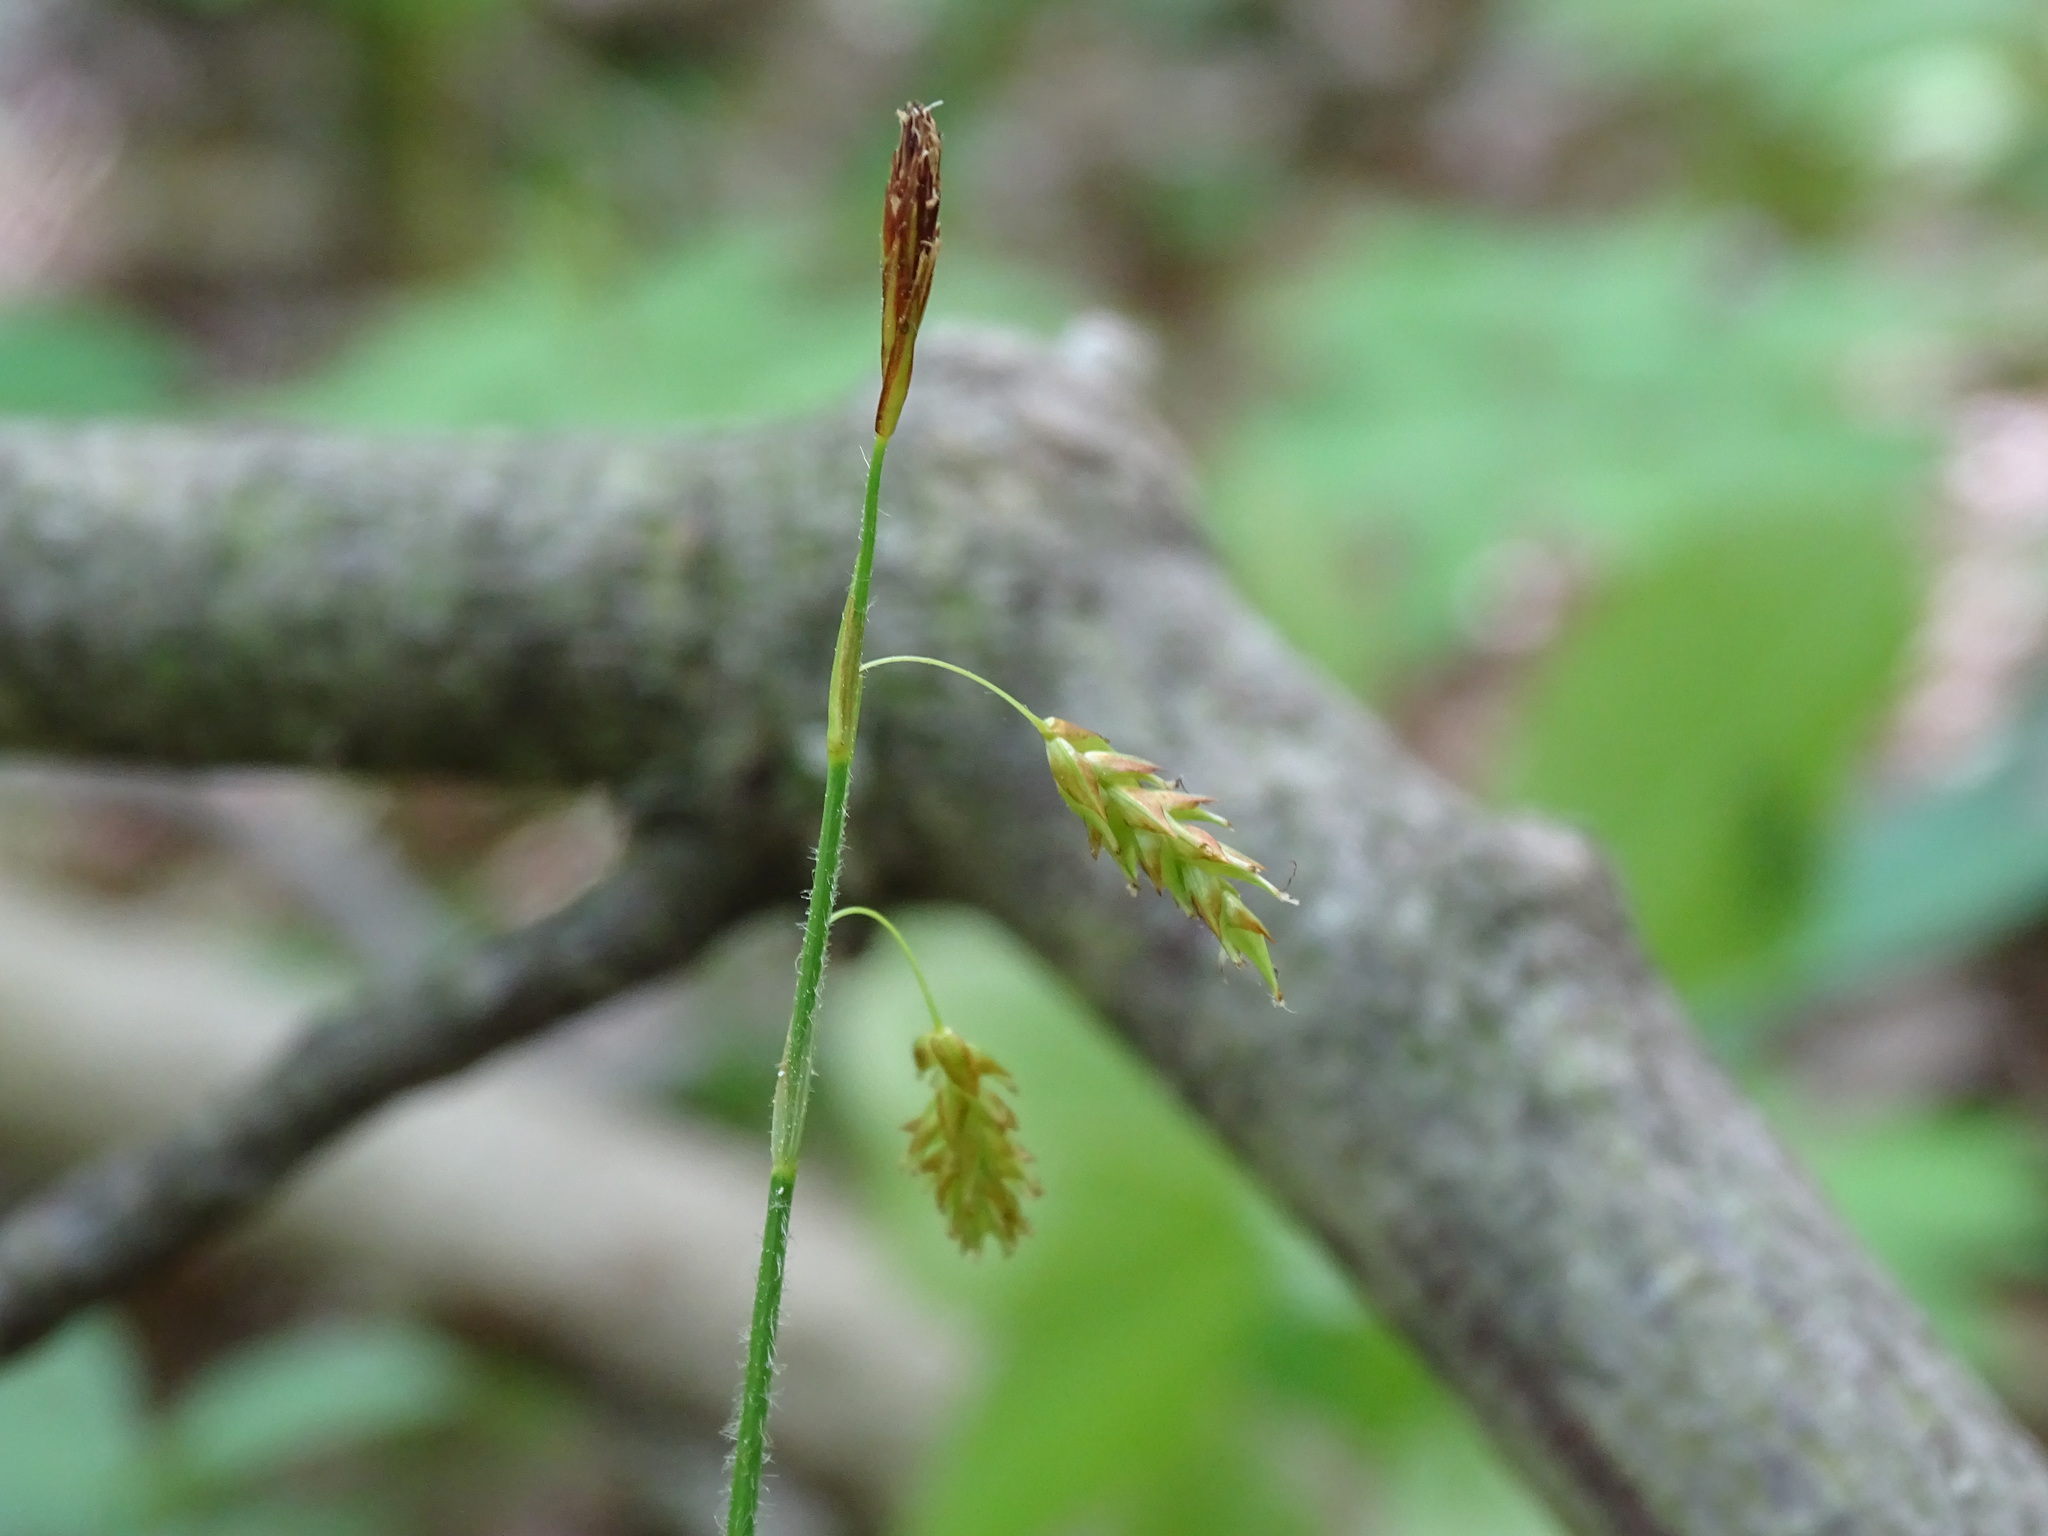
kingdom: Plantae
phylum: Tracheophyta
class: Liliopsida
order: Poales
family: Cyperaceae
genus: Carex
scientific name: Carex castanea
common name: Chestnut sedge
